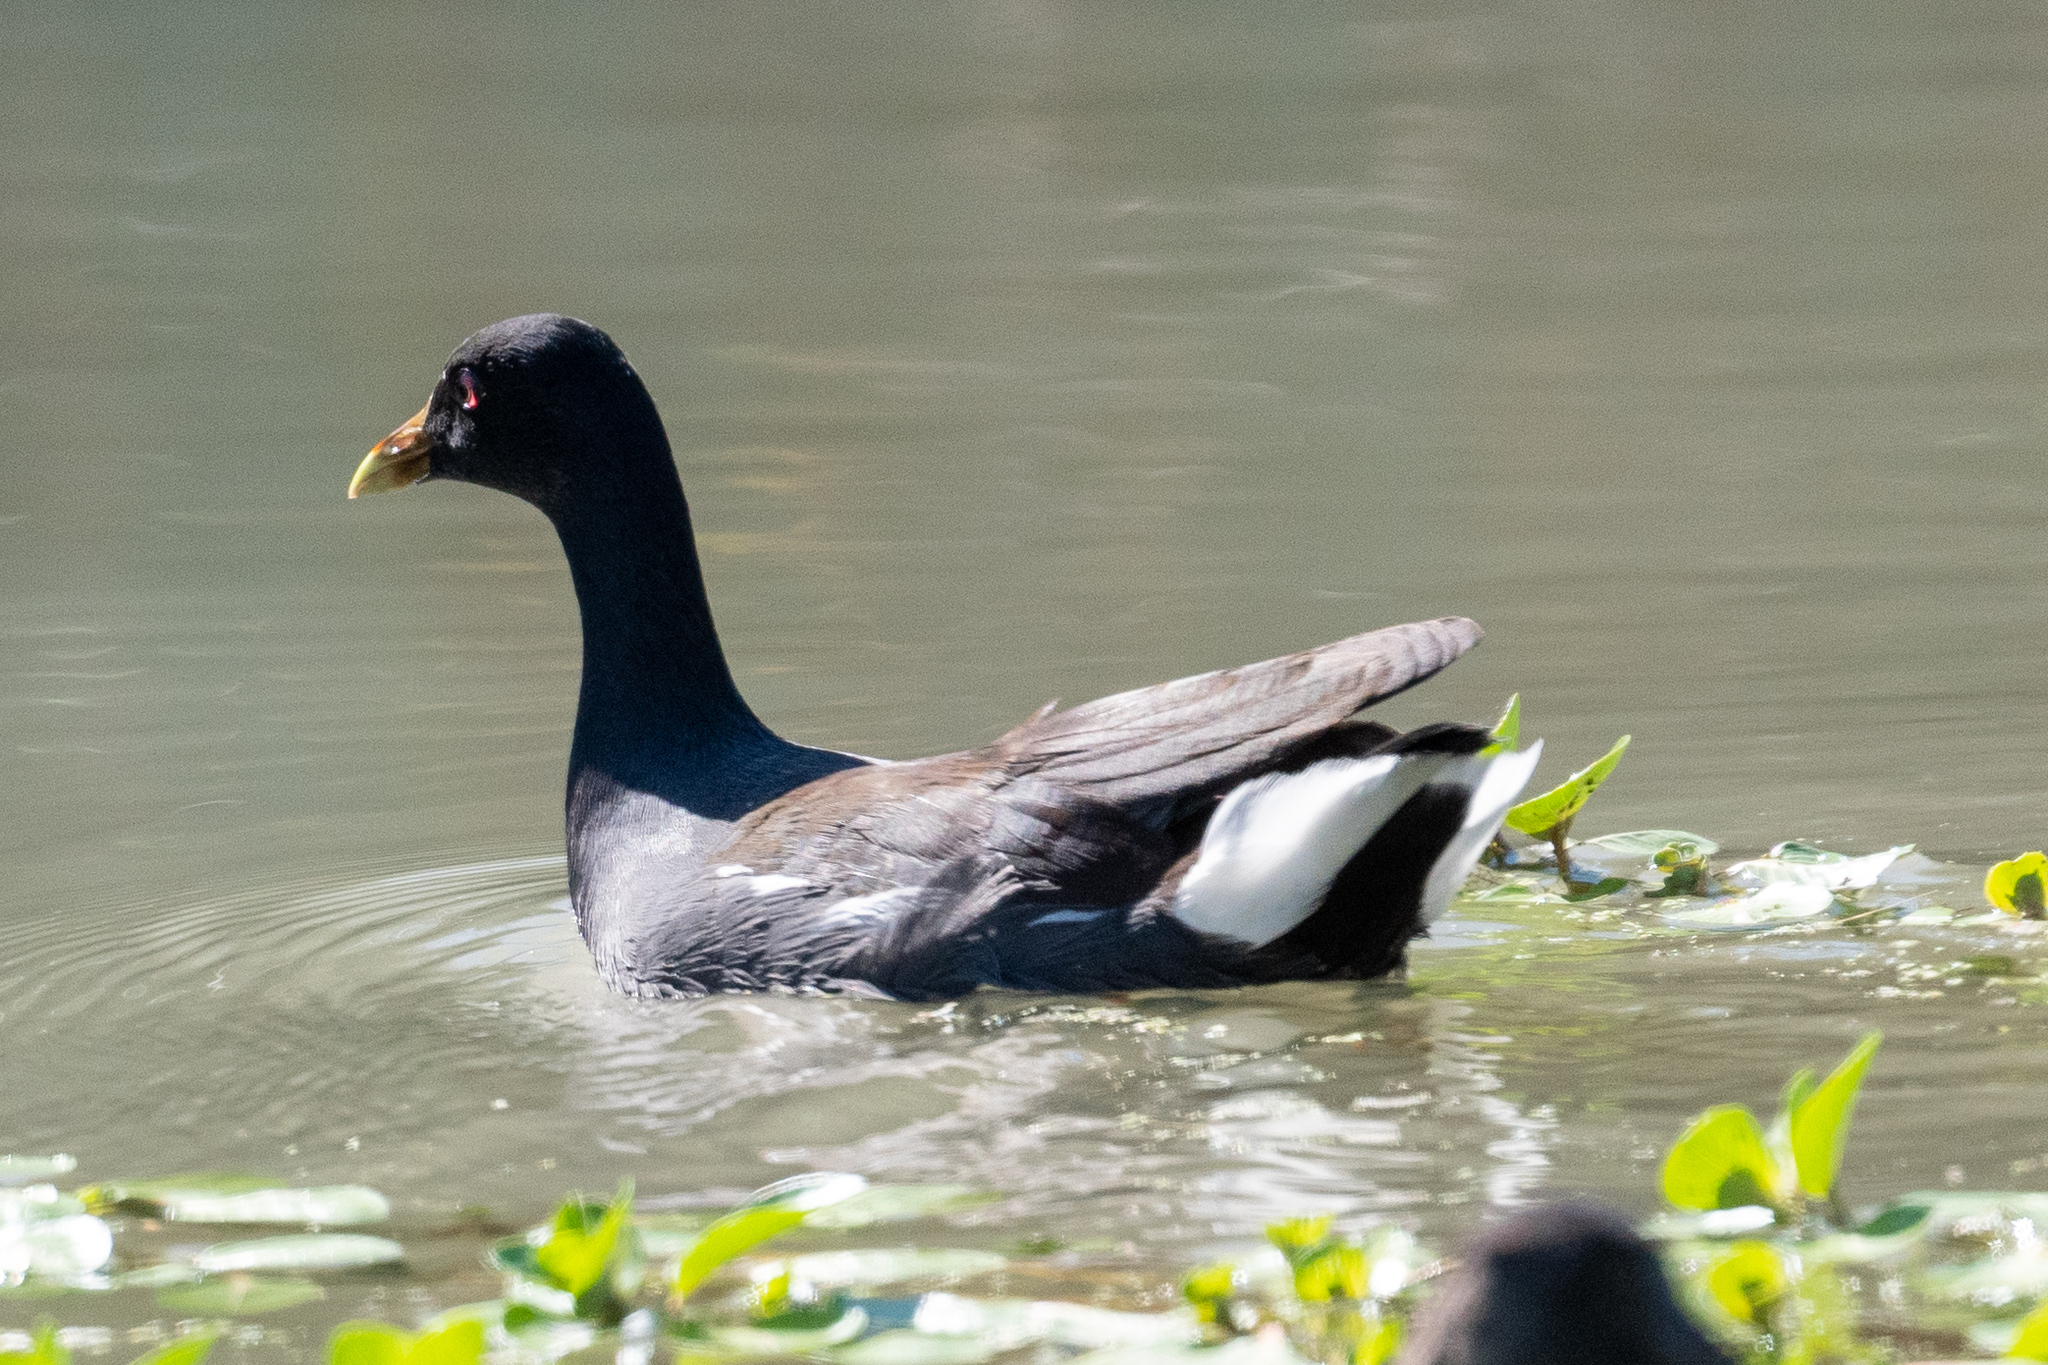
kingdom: Animalia
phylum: Chordata
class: Aves
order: Gruiformes
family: Rallidae
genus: Gallinula
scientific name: Gallinula chloropus
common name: Common moorhen
